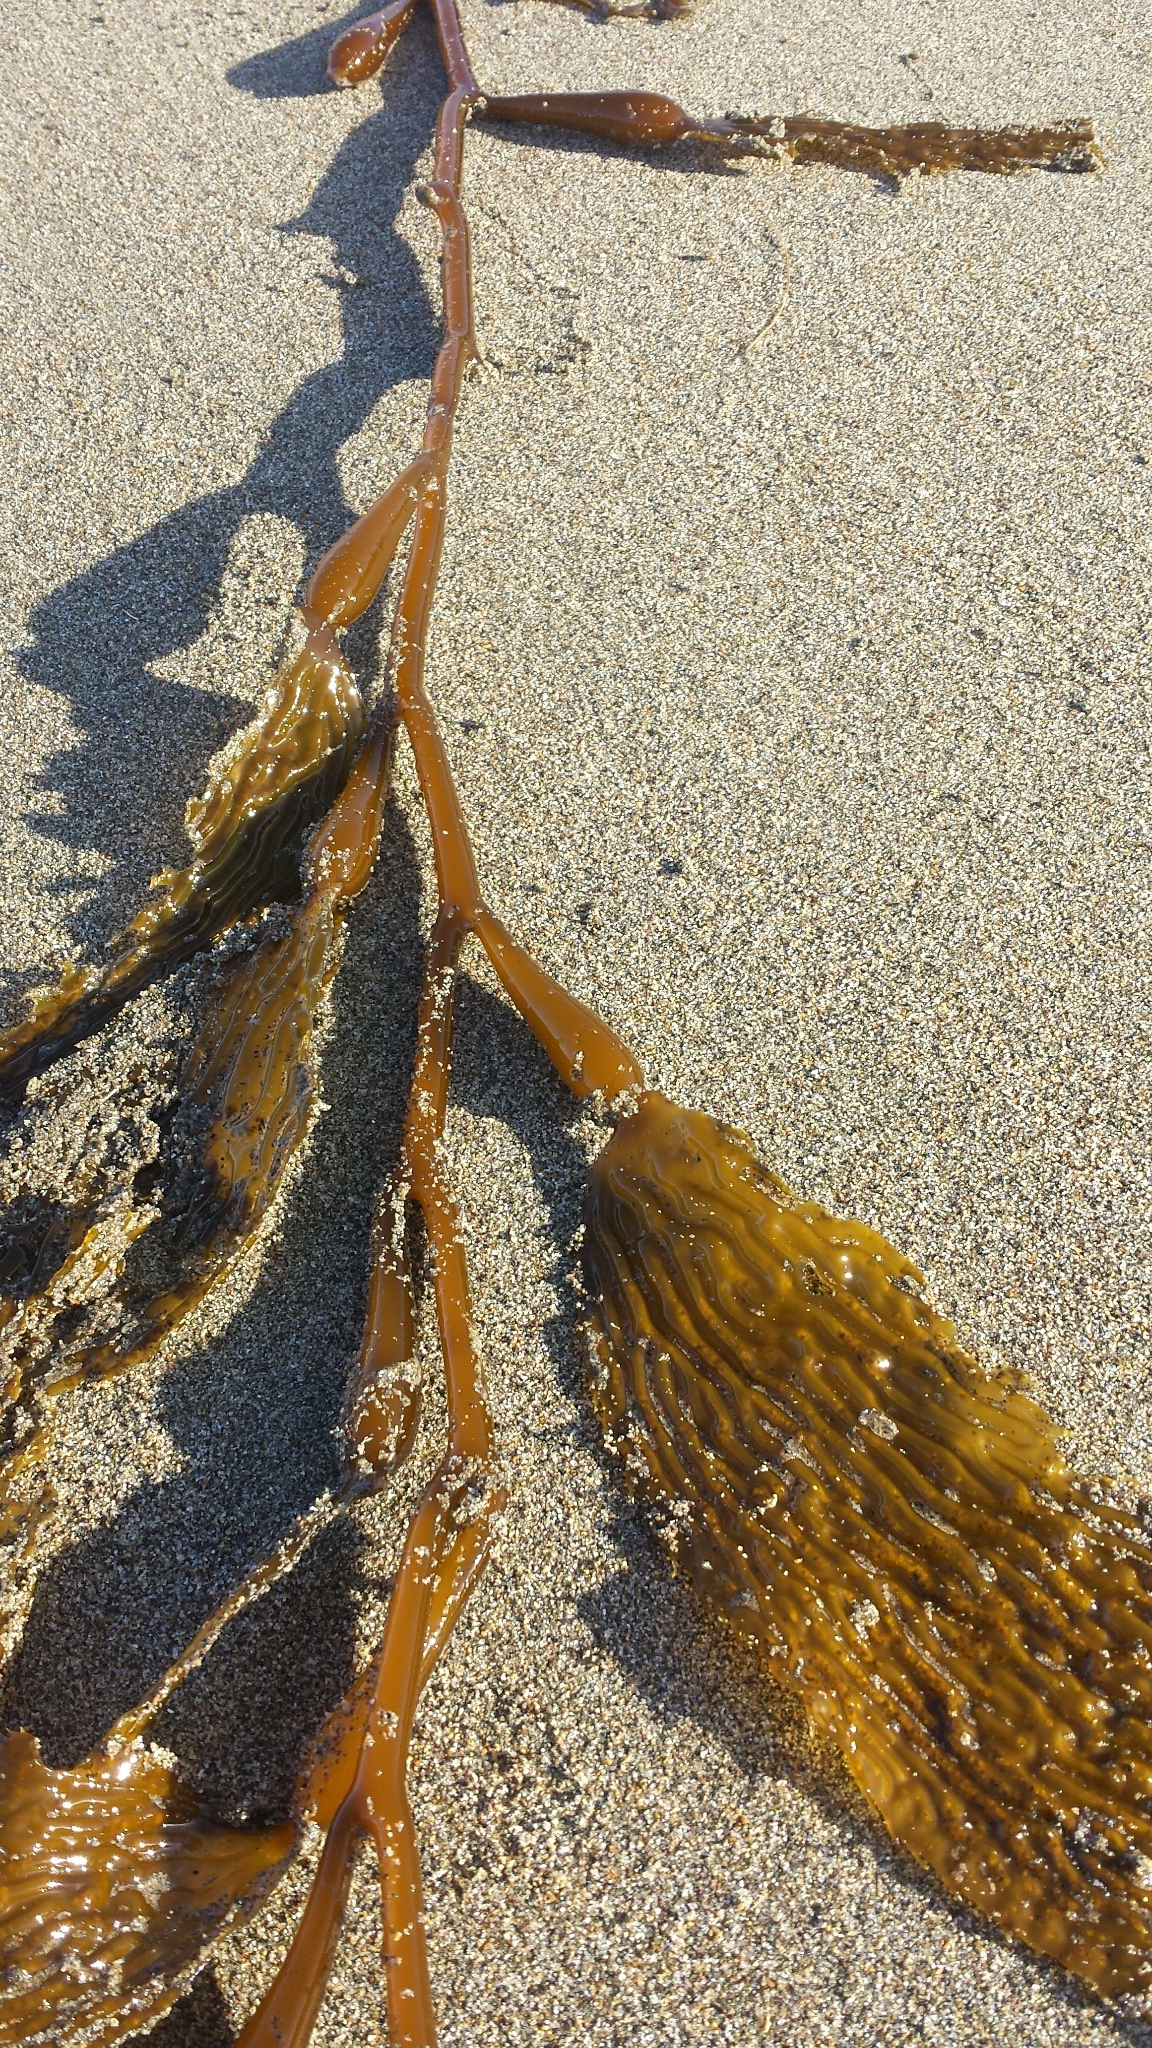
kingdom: Chromista
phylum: Ochrophyta
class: Phaeophyceae
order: Laminariales
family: Laminariaceae
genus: Macrocystis
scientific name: Macrocystis pyrifera
